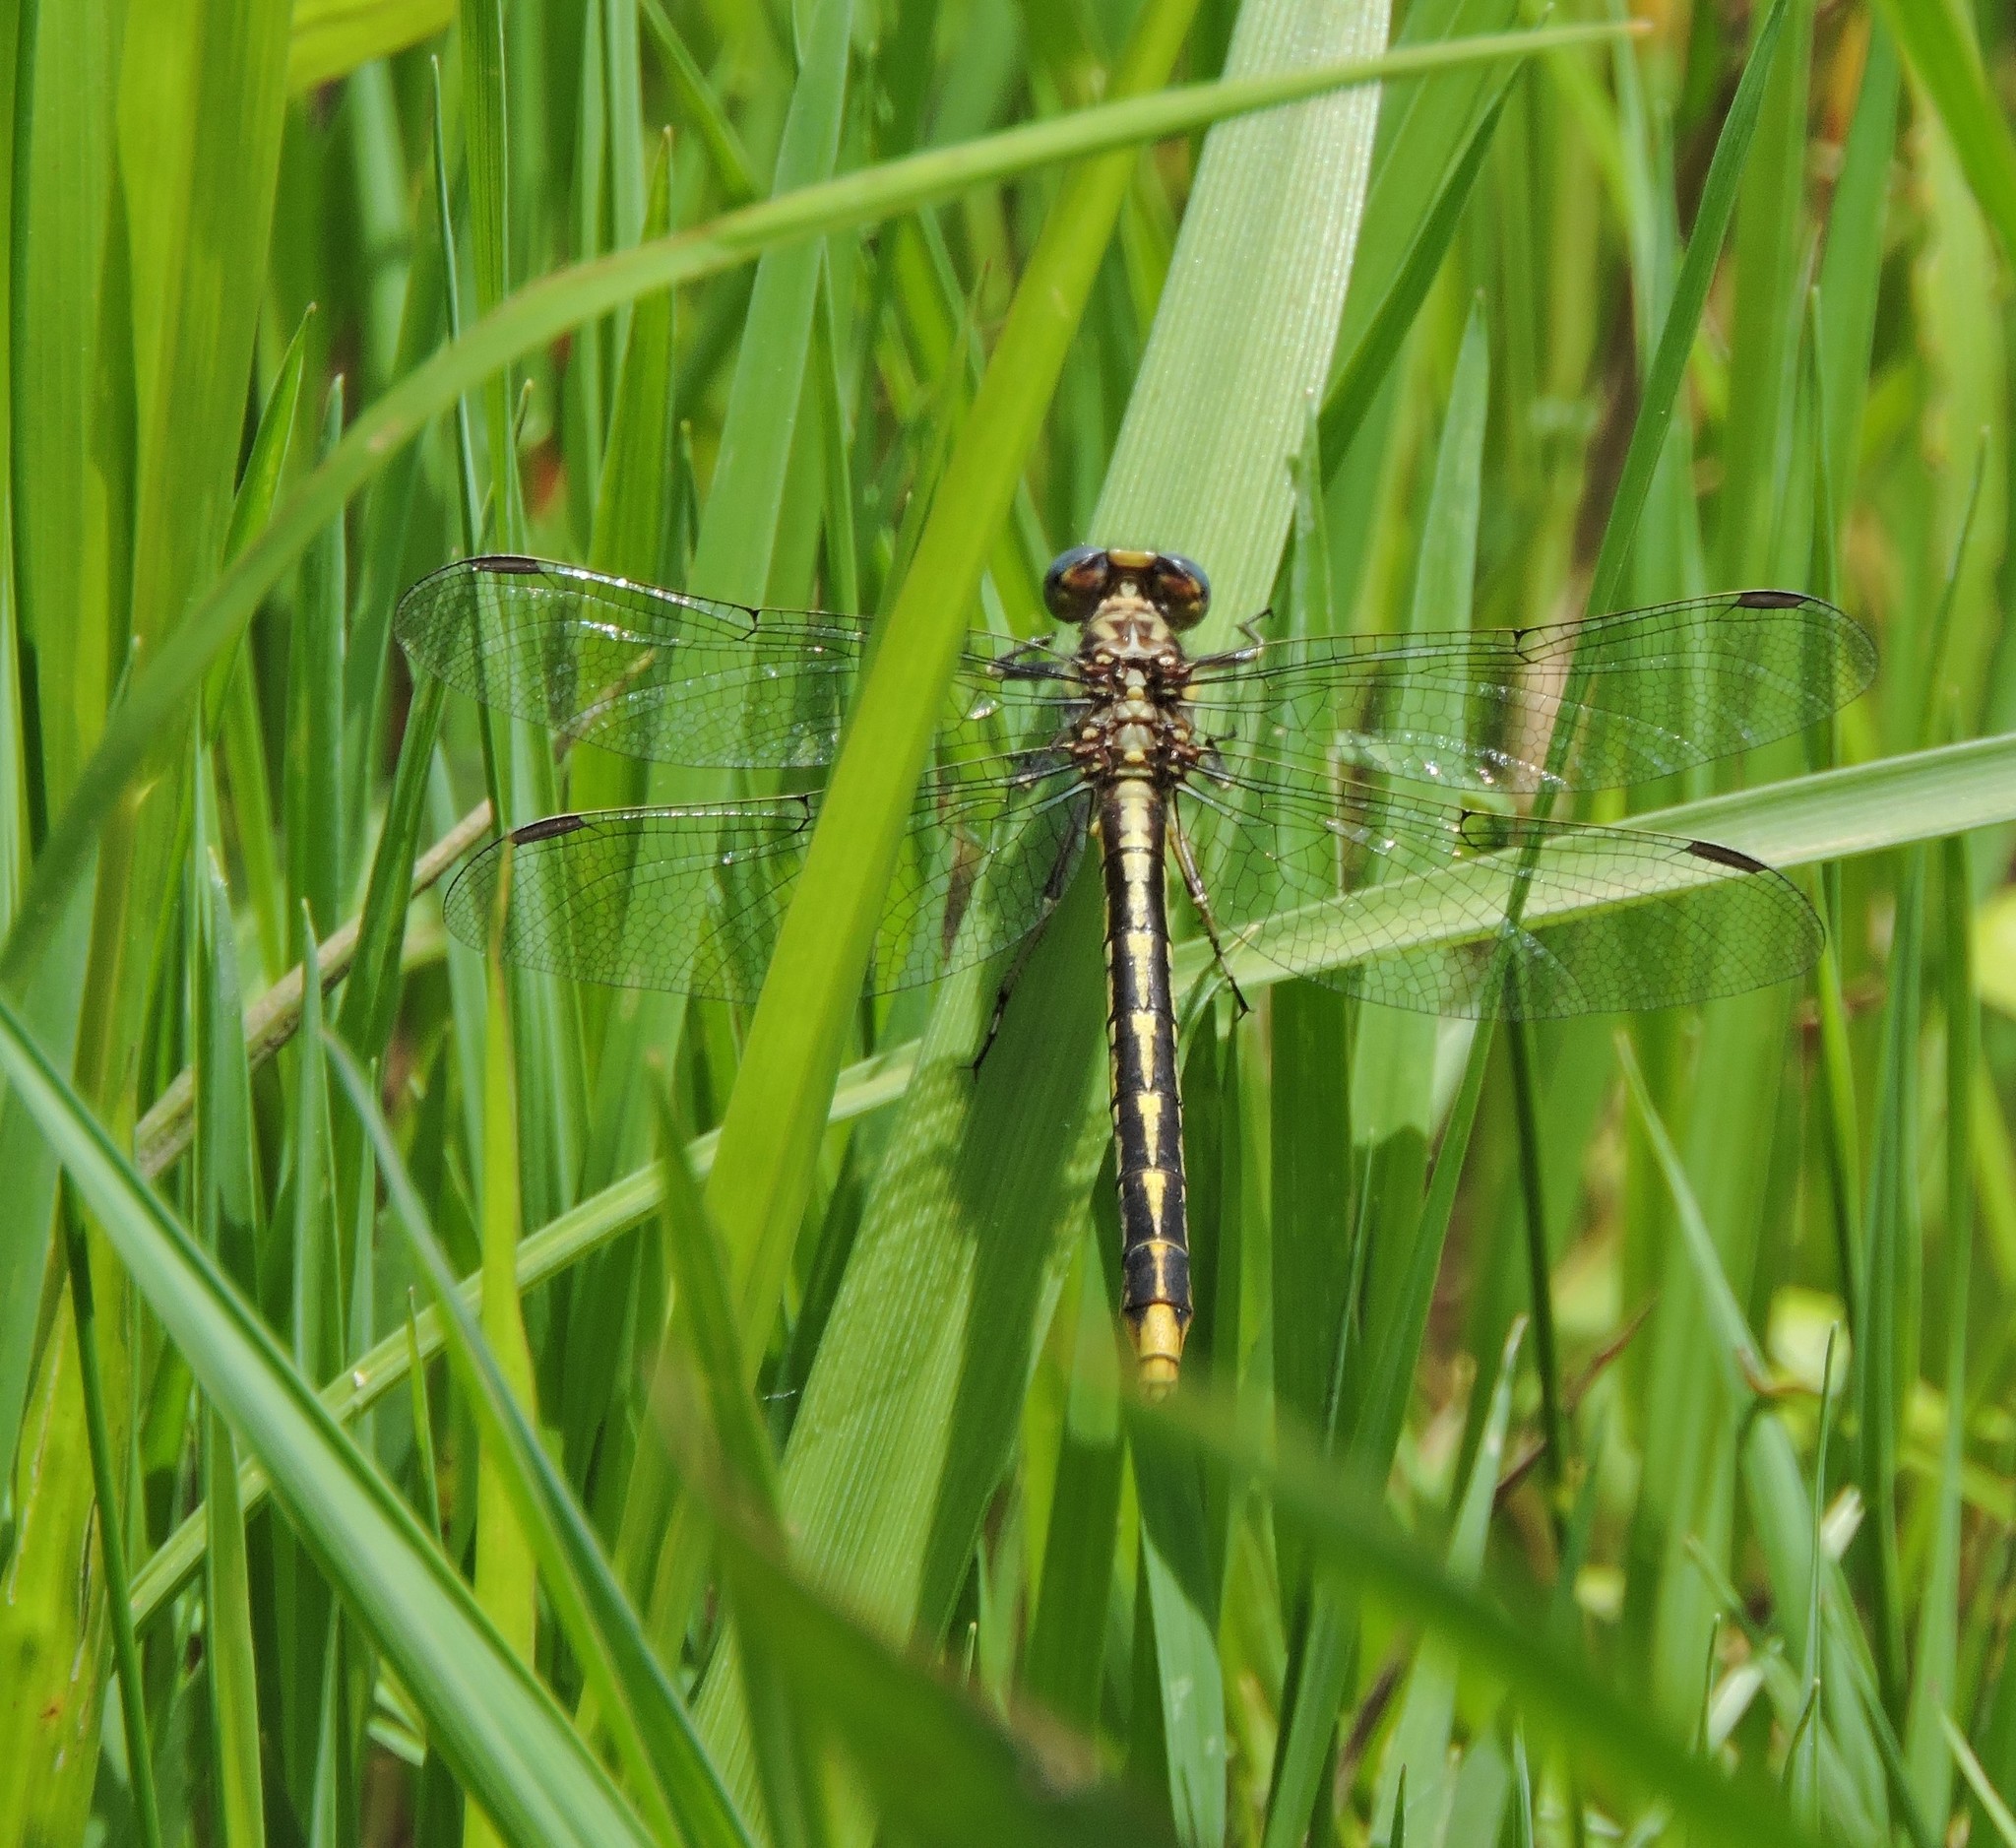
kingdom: Animalia
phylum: Arthropoda
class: Insecta
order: Odonata
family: Gomphidae
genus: Phanogomphus
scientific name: Phanogomphus exilis
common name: Lancet clubtail
